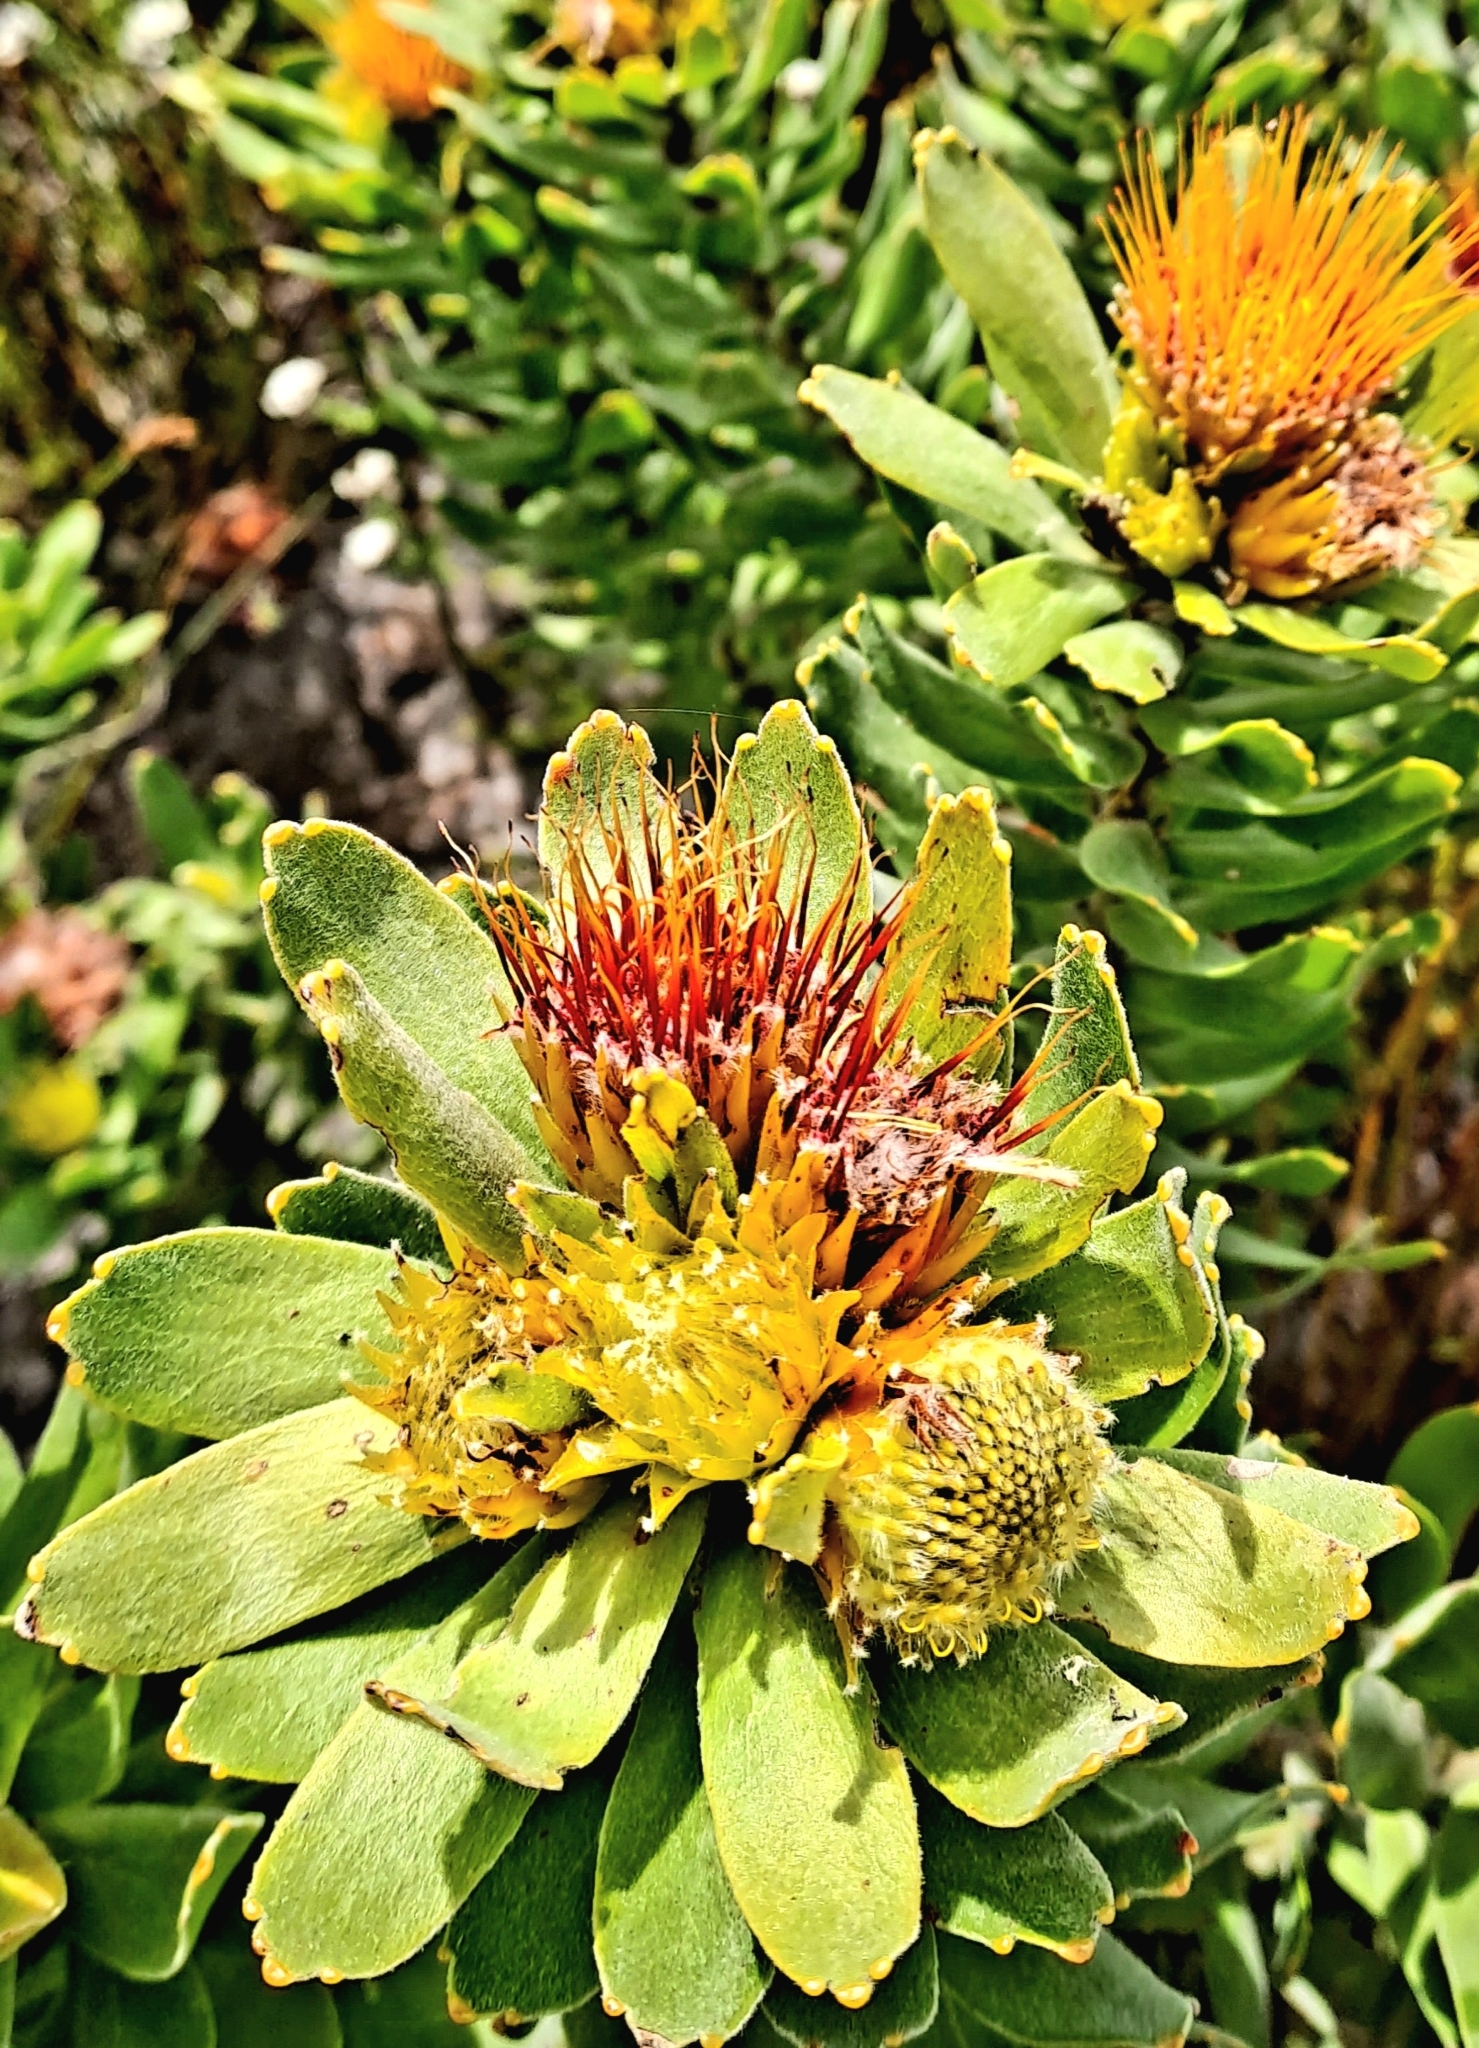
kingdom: Plantae
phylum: Tracheophyta
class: Magnoliopsida
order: Proteales
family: Proteaceae
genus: Leucospermum
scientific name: Leucospermum oleifolium
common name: Matches
